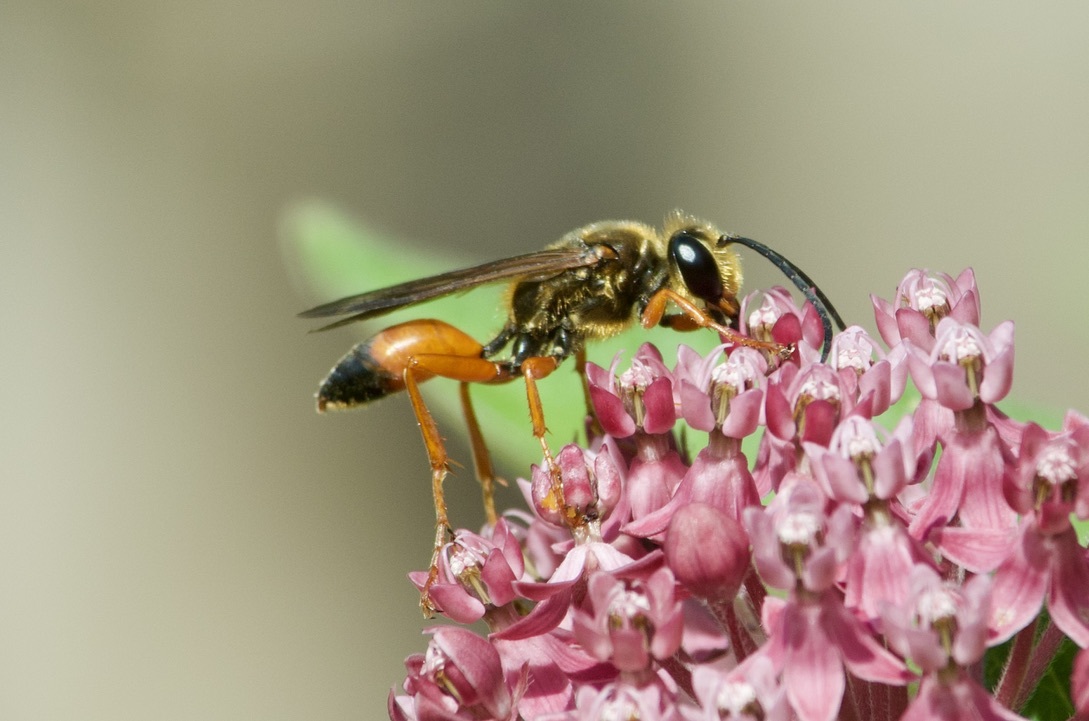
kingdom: Animalia
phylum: Arthropoda
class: Insecta
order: Hymenoptera
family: Sphecidae
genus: Sphex
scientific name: Sphex ichneumoneus
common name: Great golden digger wasp
